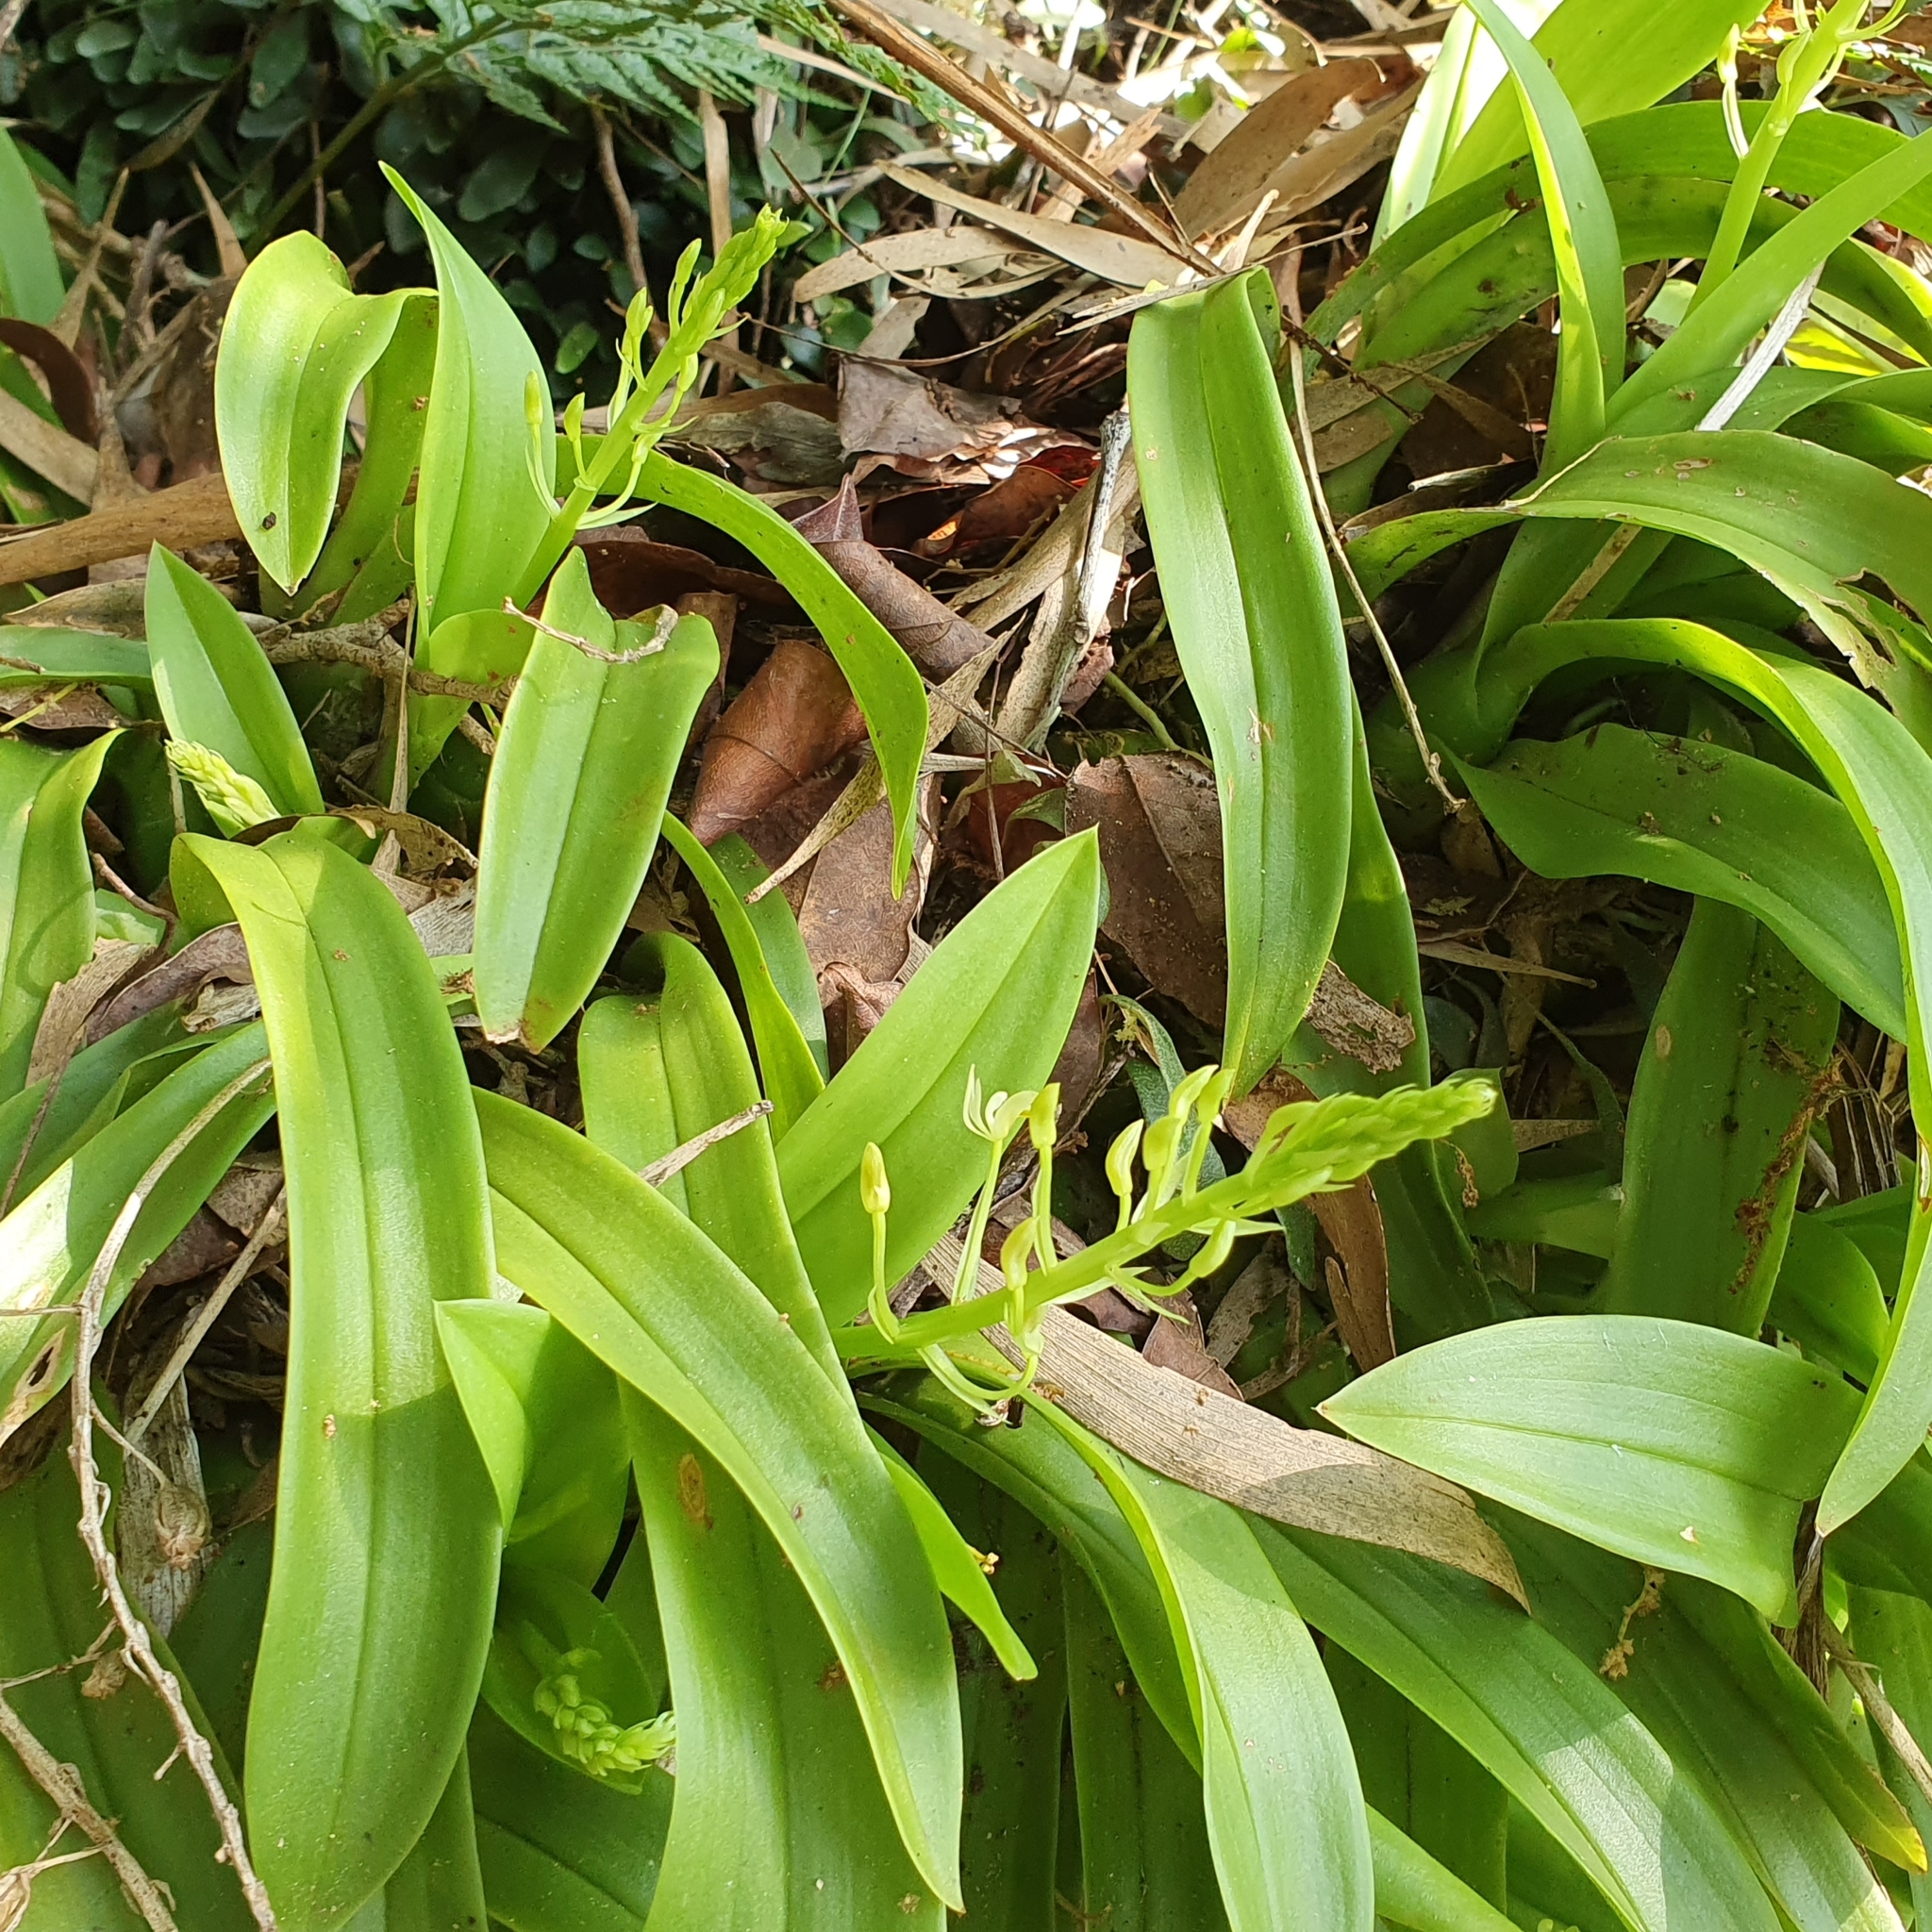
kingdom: Plantae
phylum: Tracheophyta
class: Liliopsida
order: Asparagales
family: Orchidaceae
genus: Liparis
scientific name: Liparis reflexa
